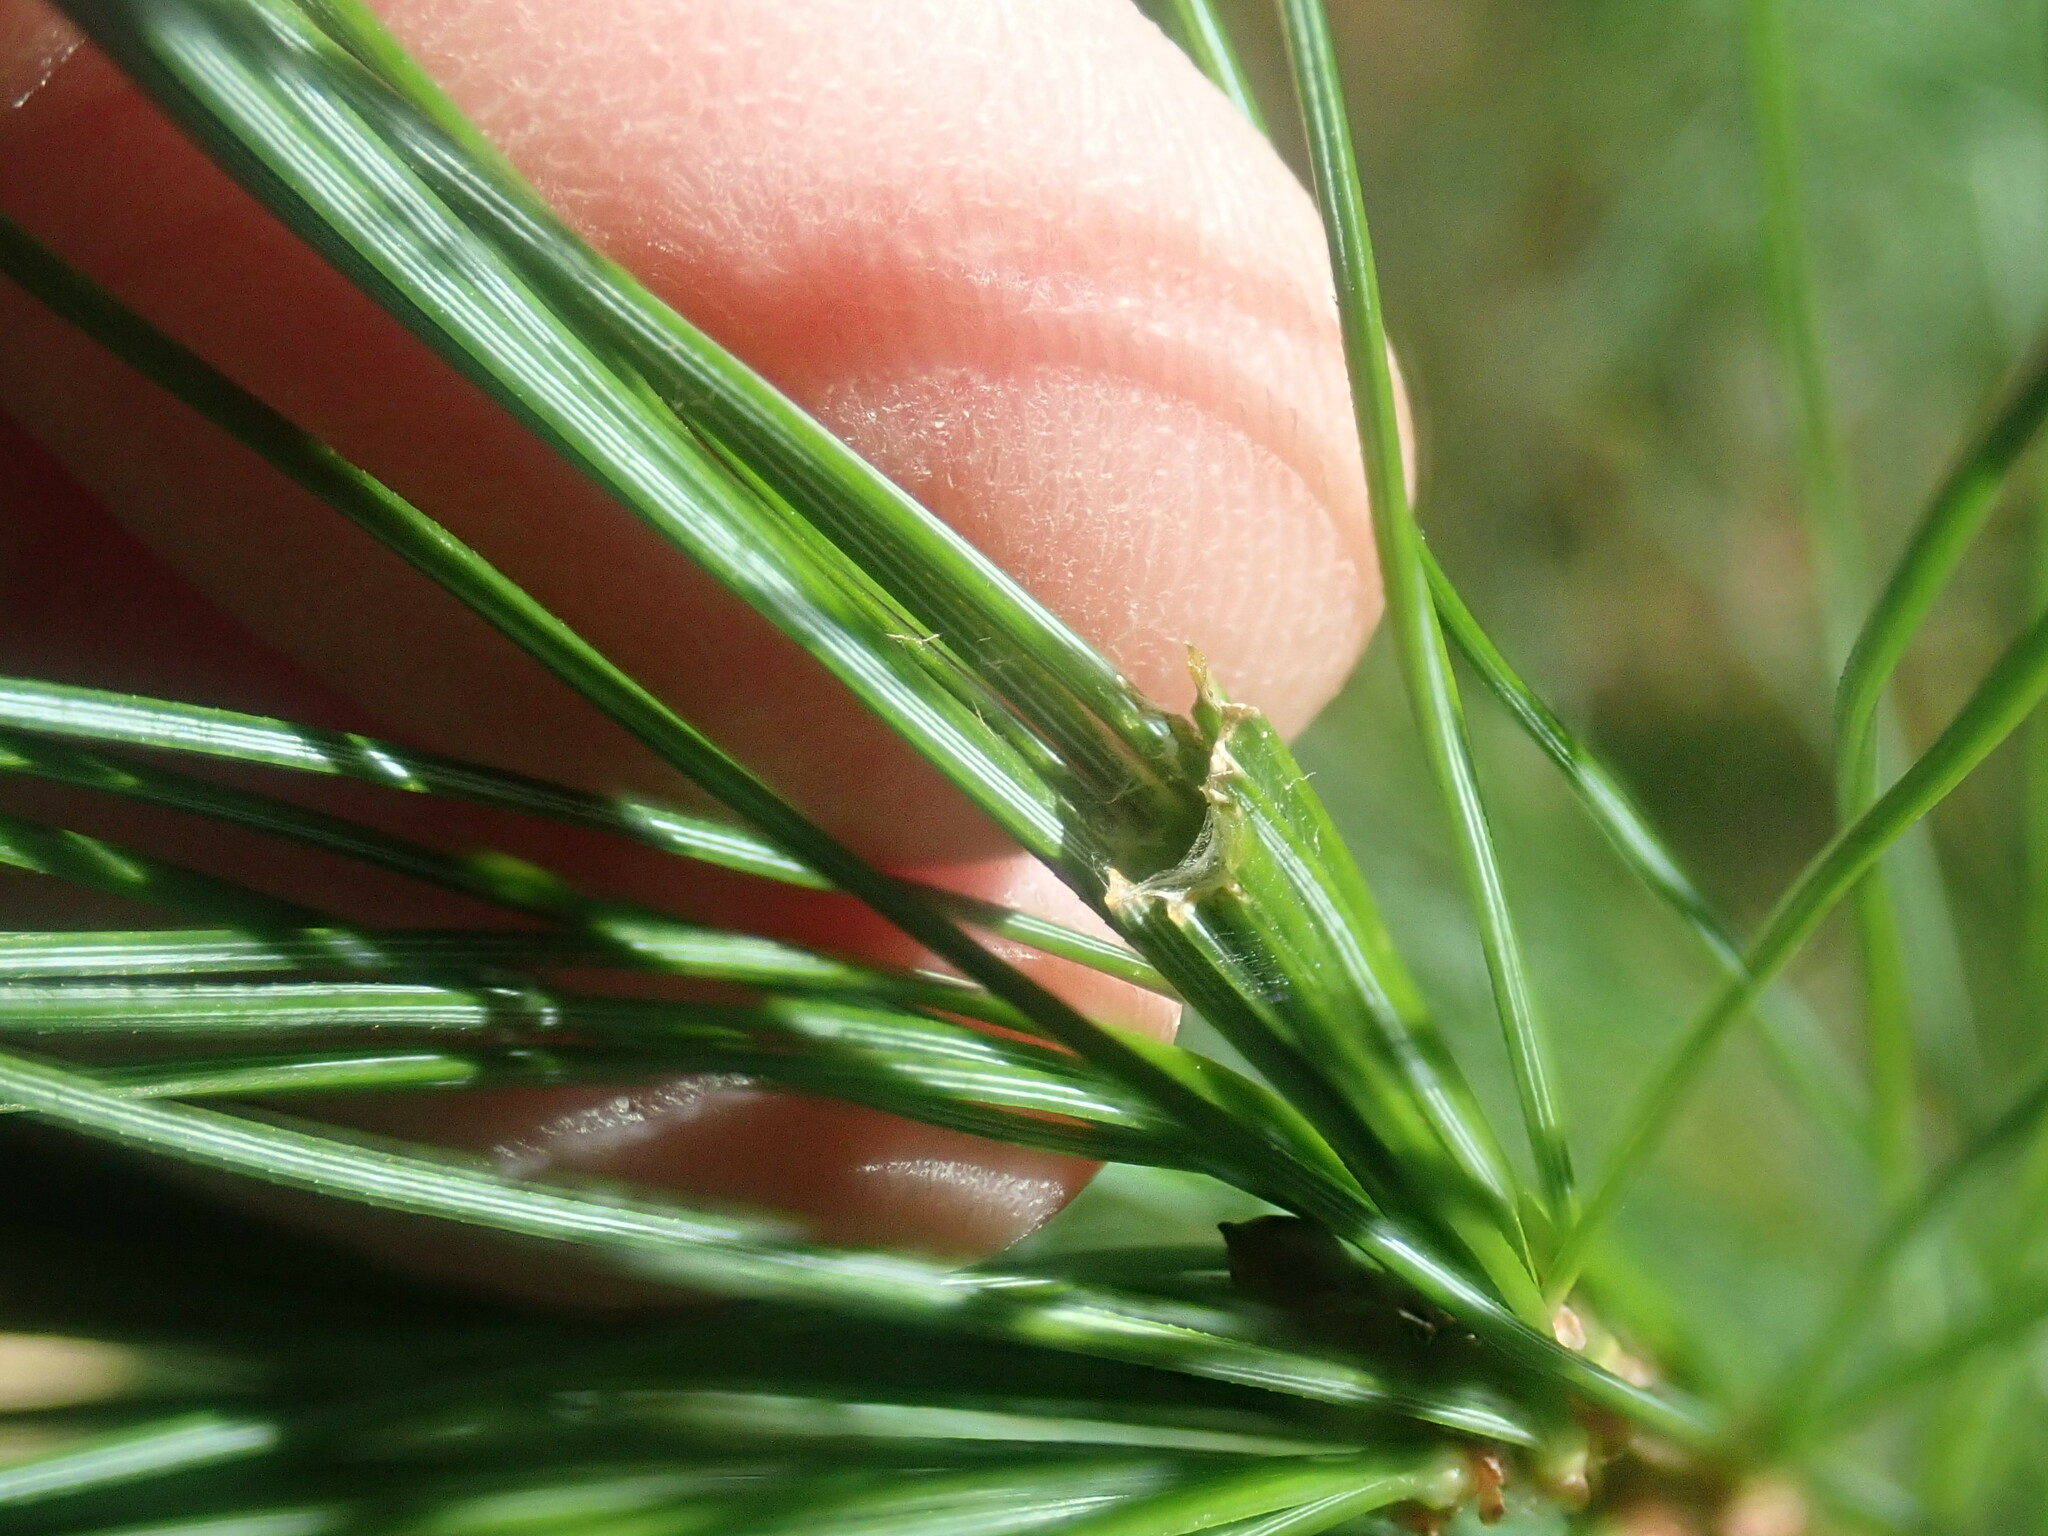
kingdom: Animalia
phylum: Arthropoda
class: Insecta
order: Lepidoptera
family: Tortricidae
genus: Argyrotaenia
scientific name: Argyrotaenia pinatubana
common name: Pine tube moth
